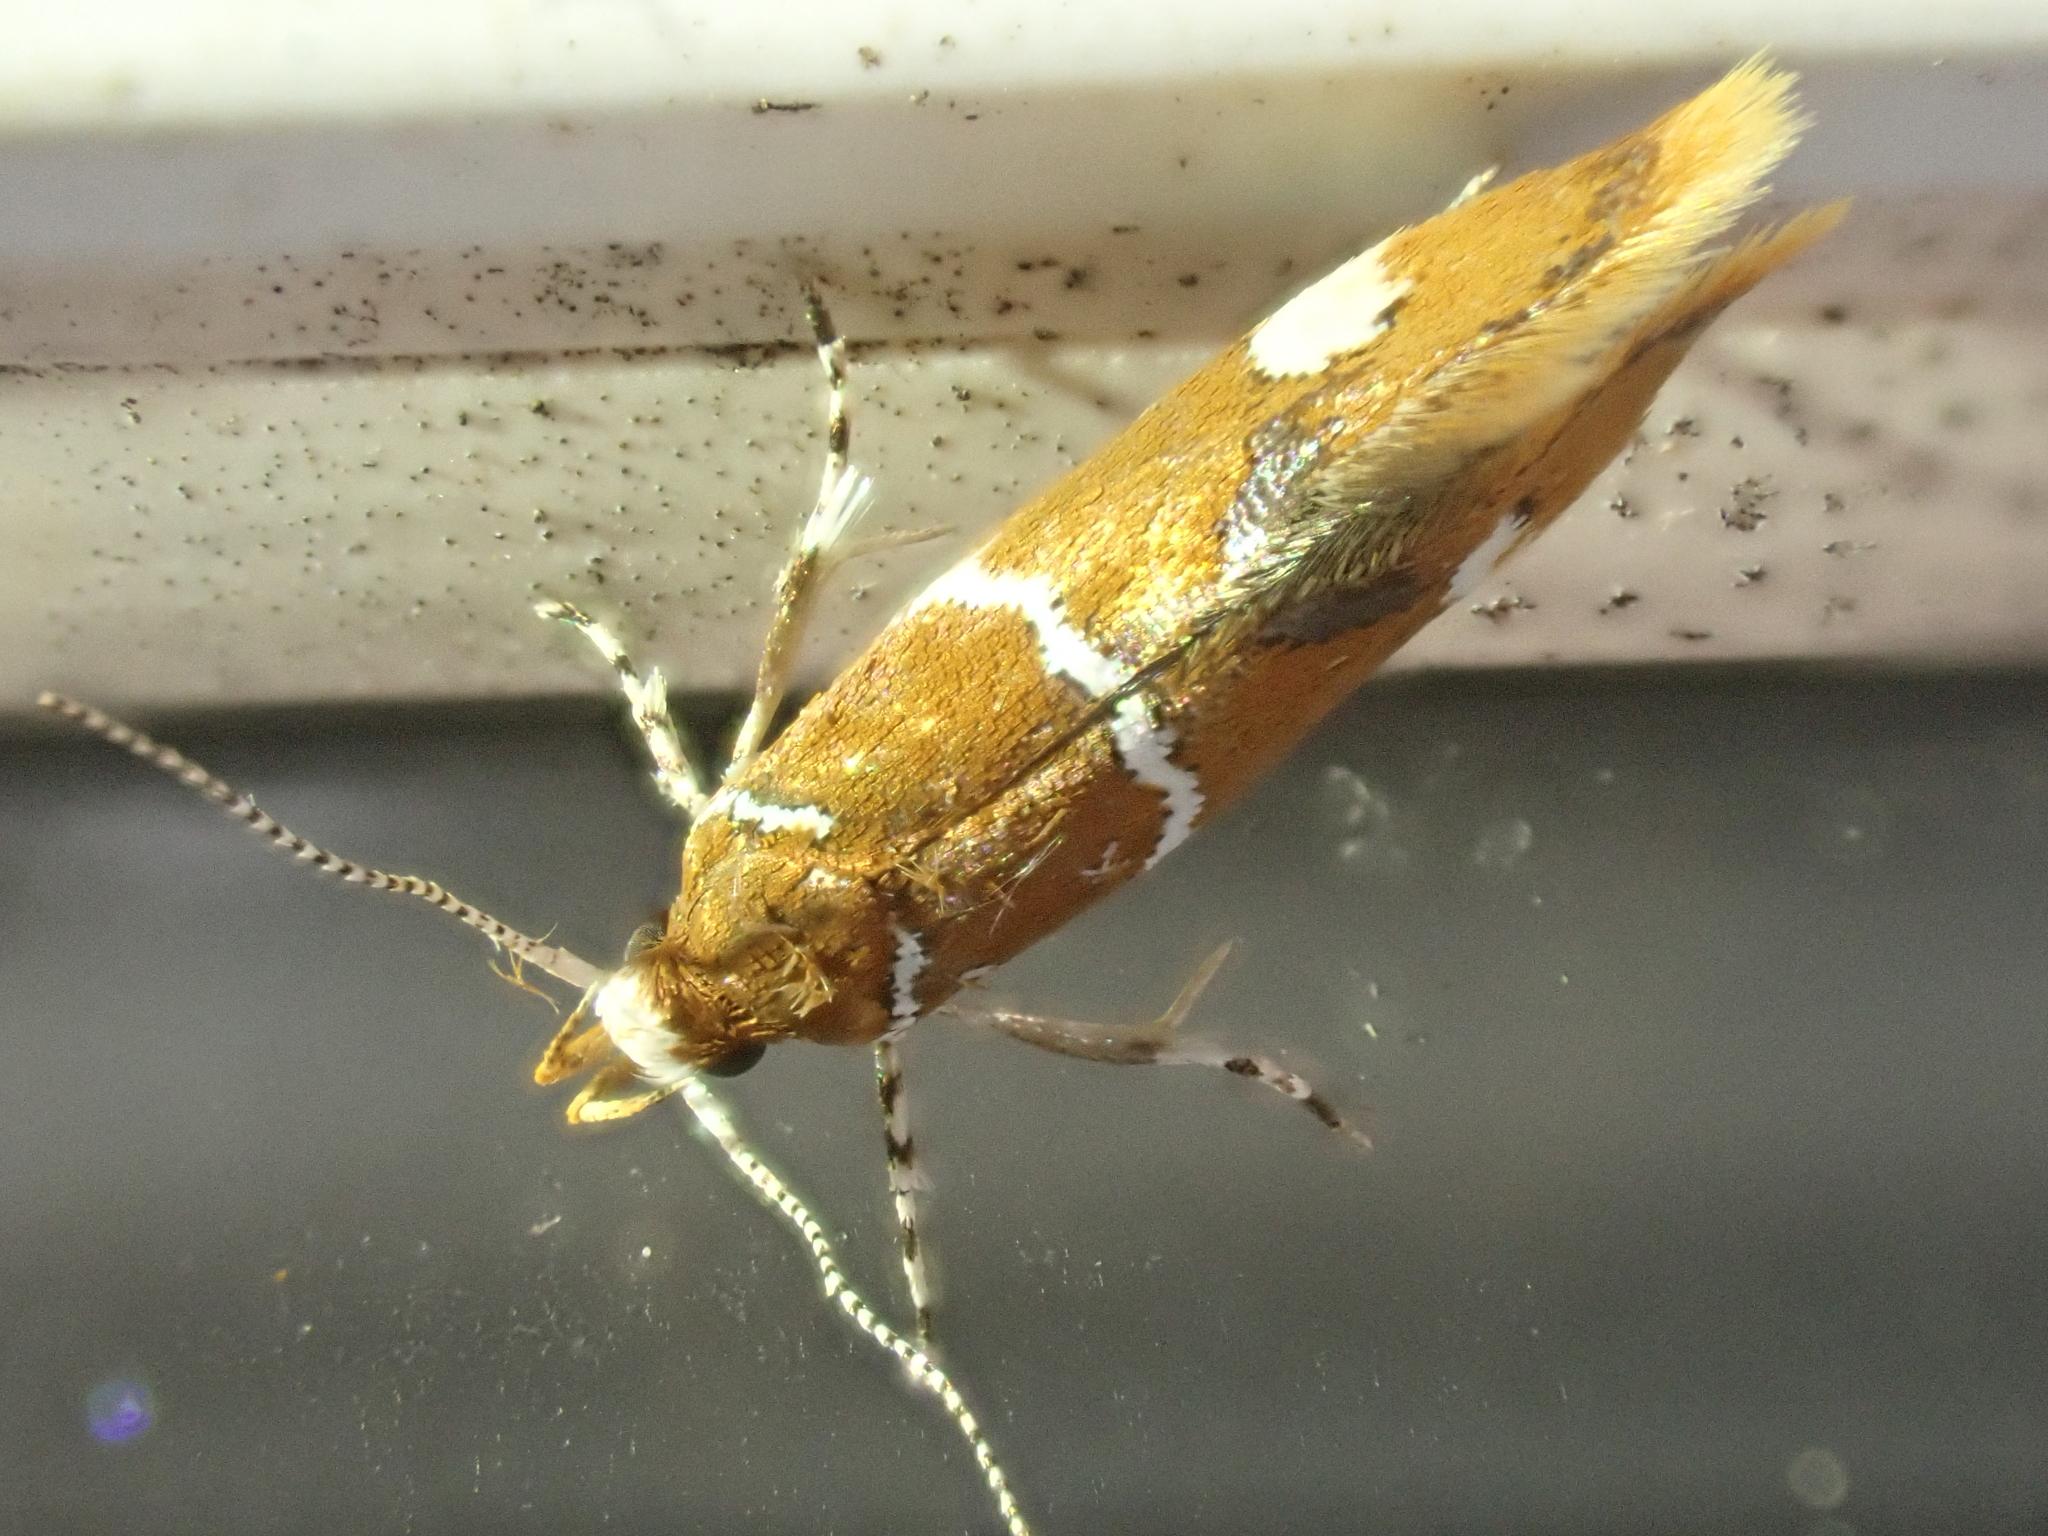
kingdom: Animalia
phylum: Arthropoda
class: Insecta
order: Lepidoptera
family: Oecophoridae
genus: Promalactis
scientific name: Promalactis suzukiella
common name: Moth
